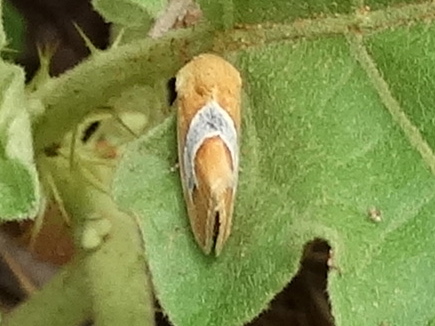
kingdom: Animalia
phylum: Arthropoda
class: Insecta
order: Lepidoptera
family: Noctuidae
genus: Ponometia
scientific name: Ponometia venustula
